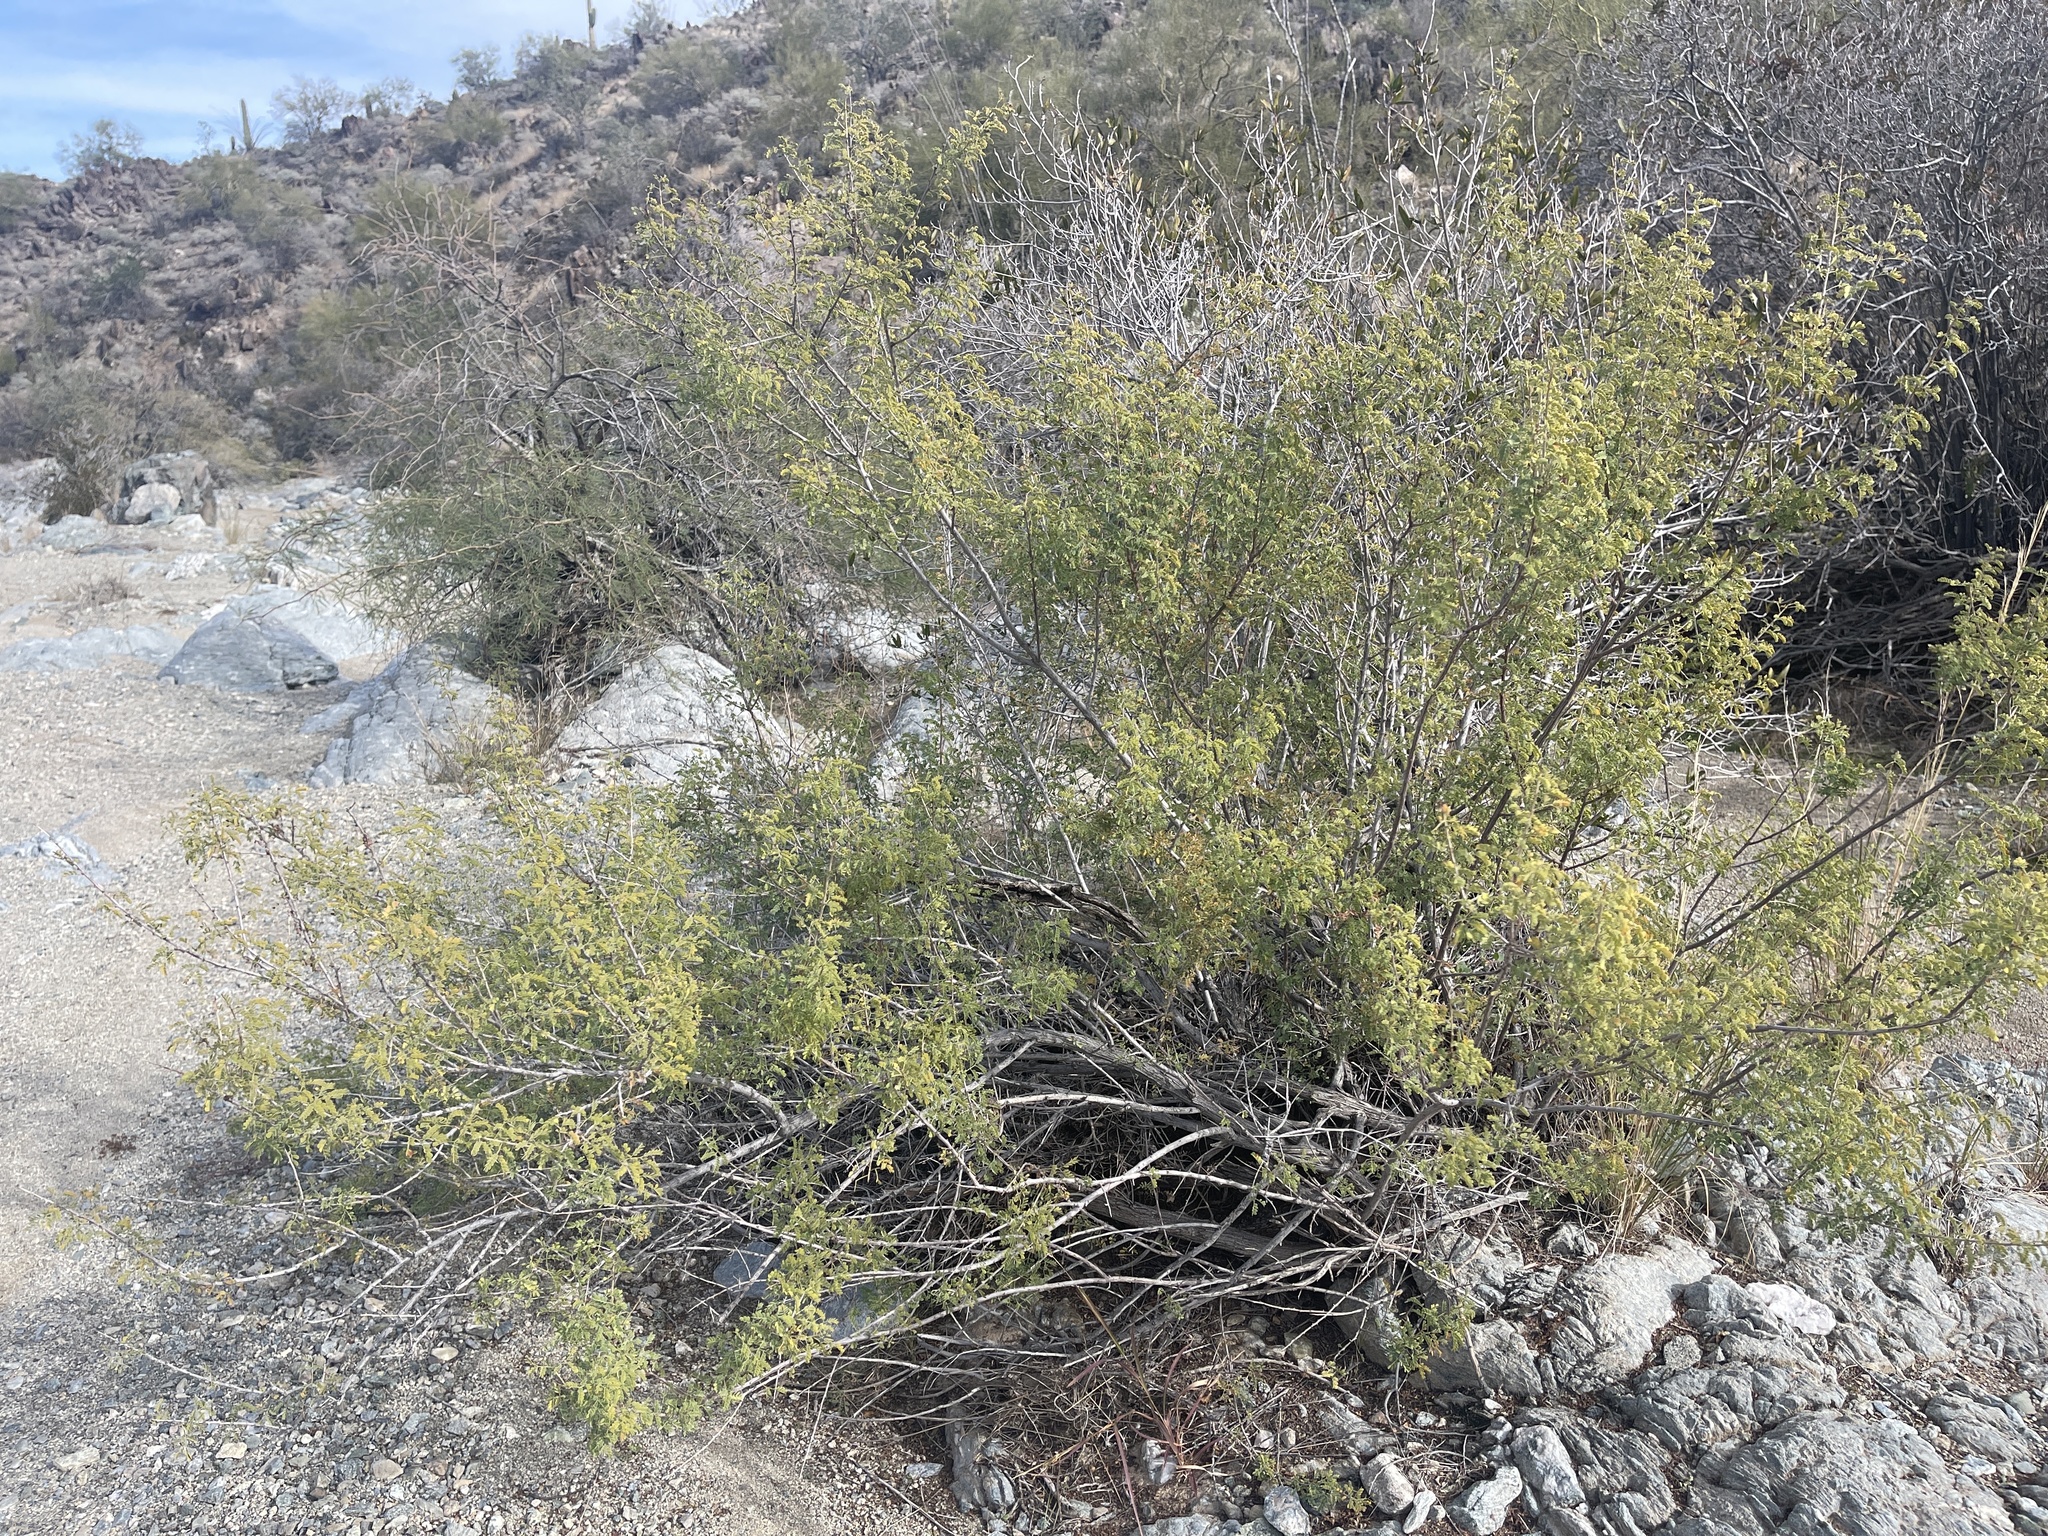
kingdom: Plantae
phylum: Tracheophyta
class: Magnoliopsida
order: Fabales
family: Fabaceae
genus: Senegalia
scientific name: Senegalia greggii
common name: Texas-mimosa
